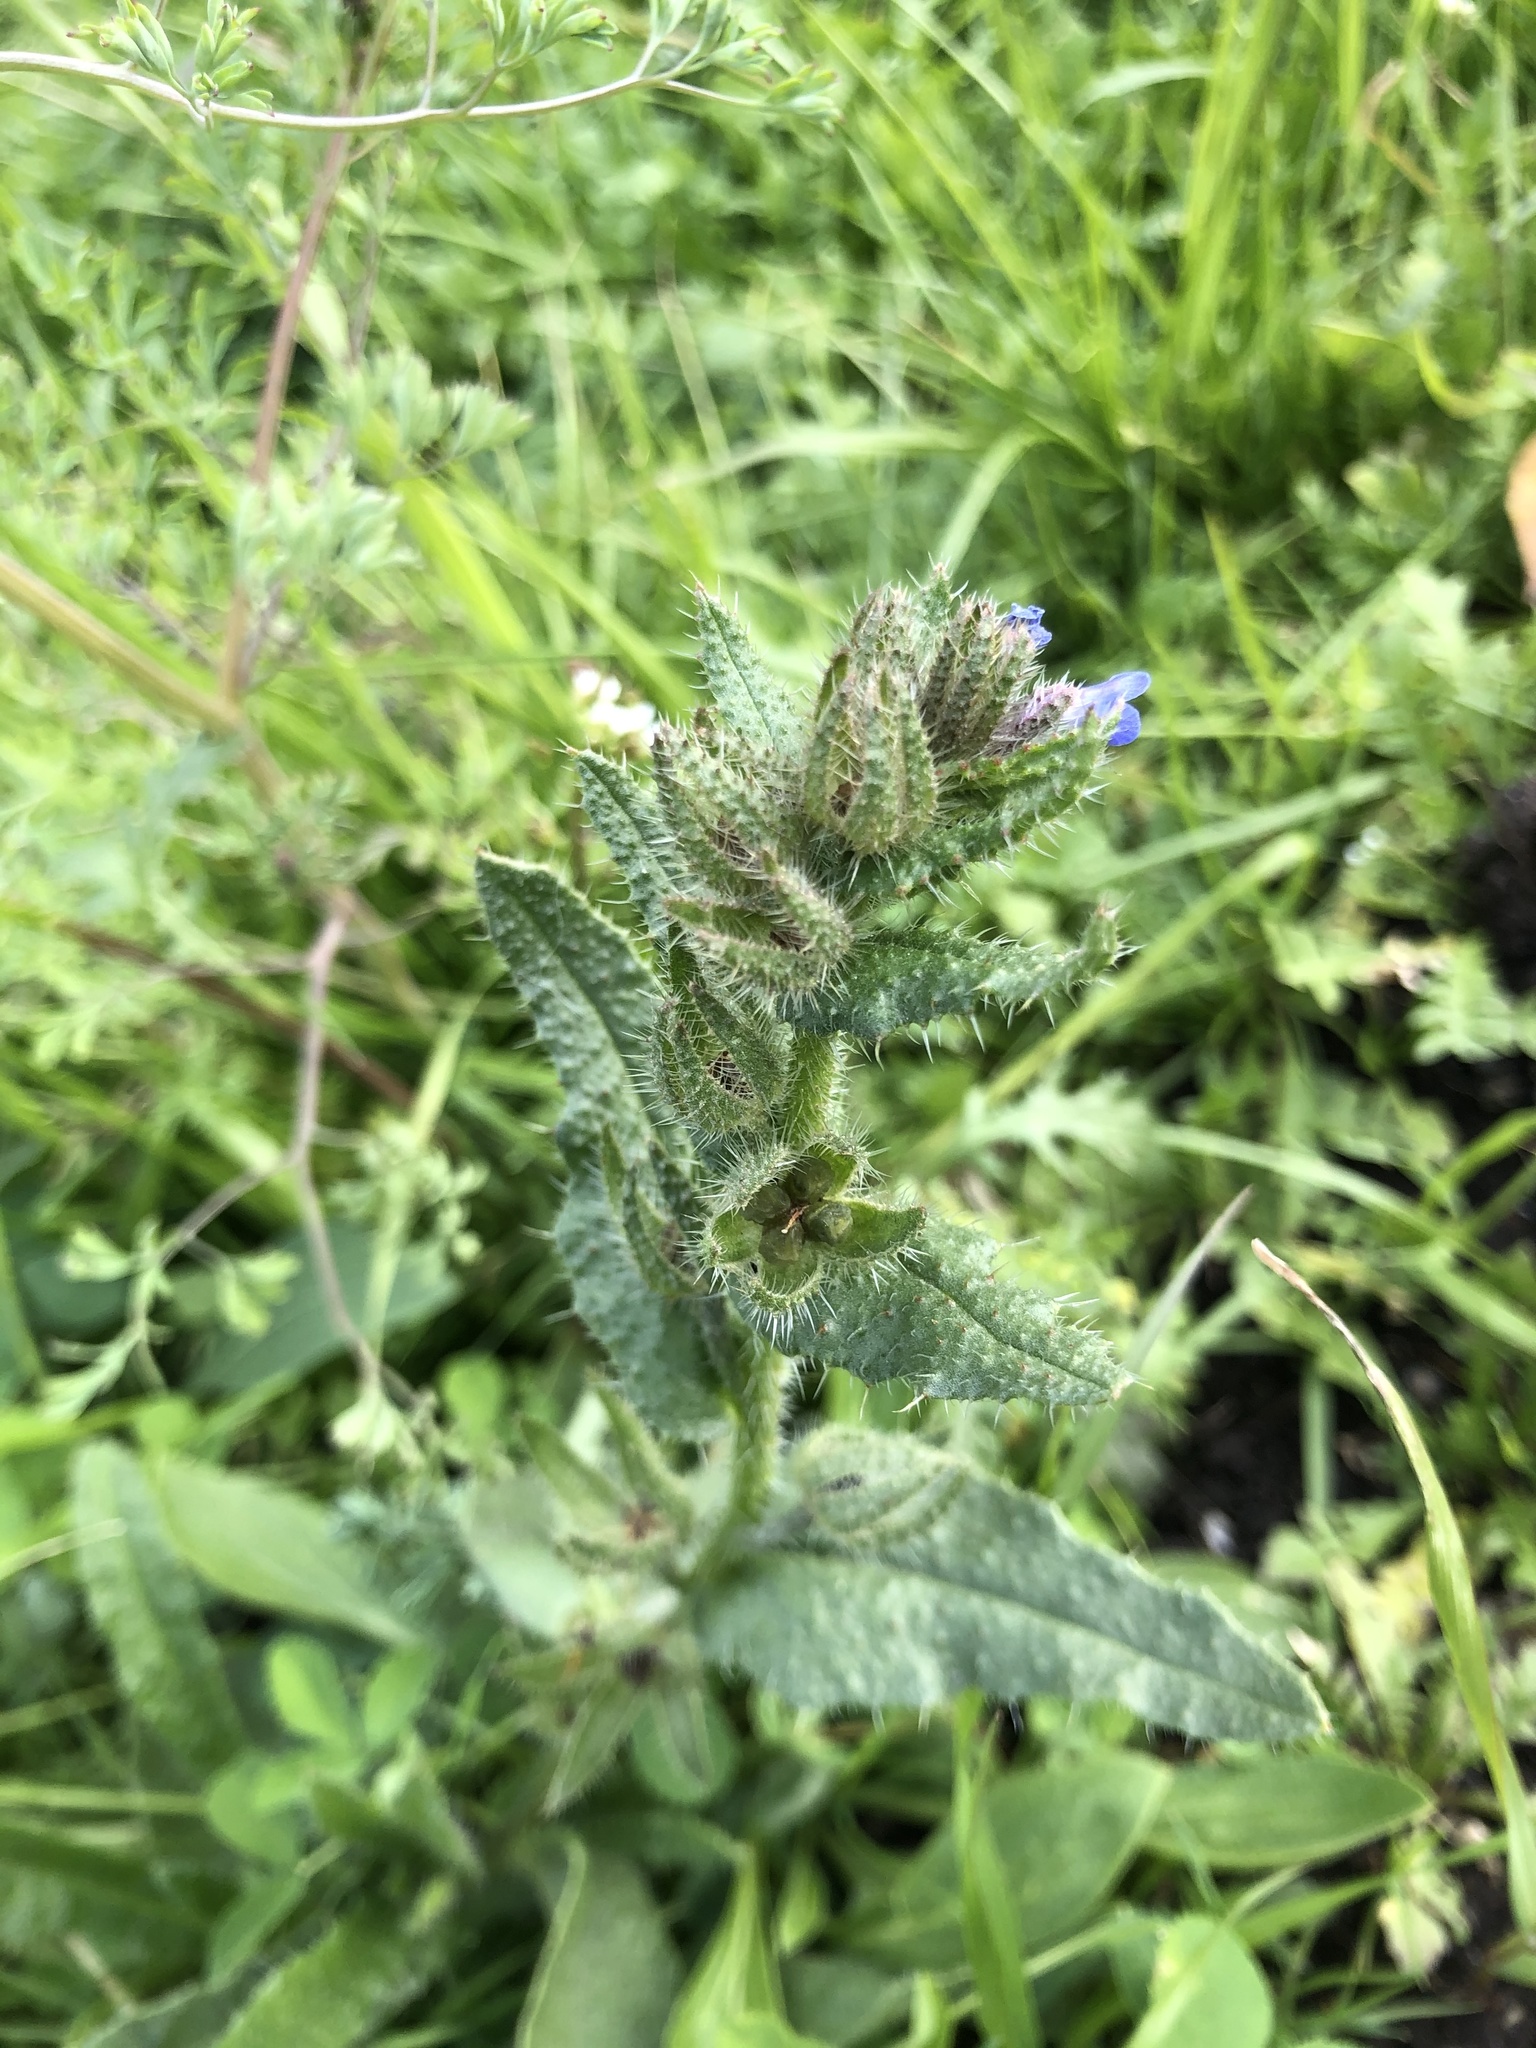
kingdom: Plantae
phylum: Tracheophyta
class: Magnoliopsida
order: Boraginales
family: Boraginaceae
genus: Lycopsis
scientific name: Lycopsis arvensis
